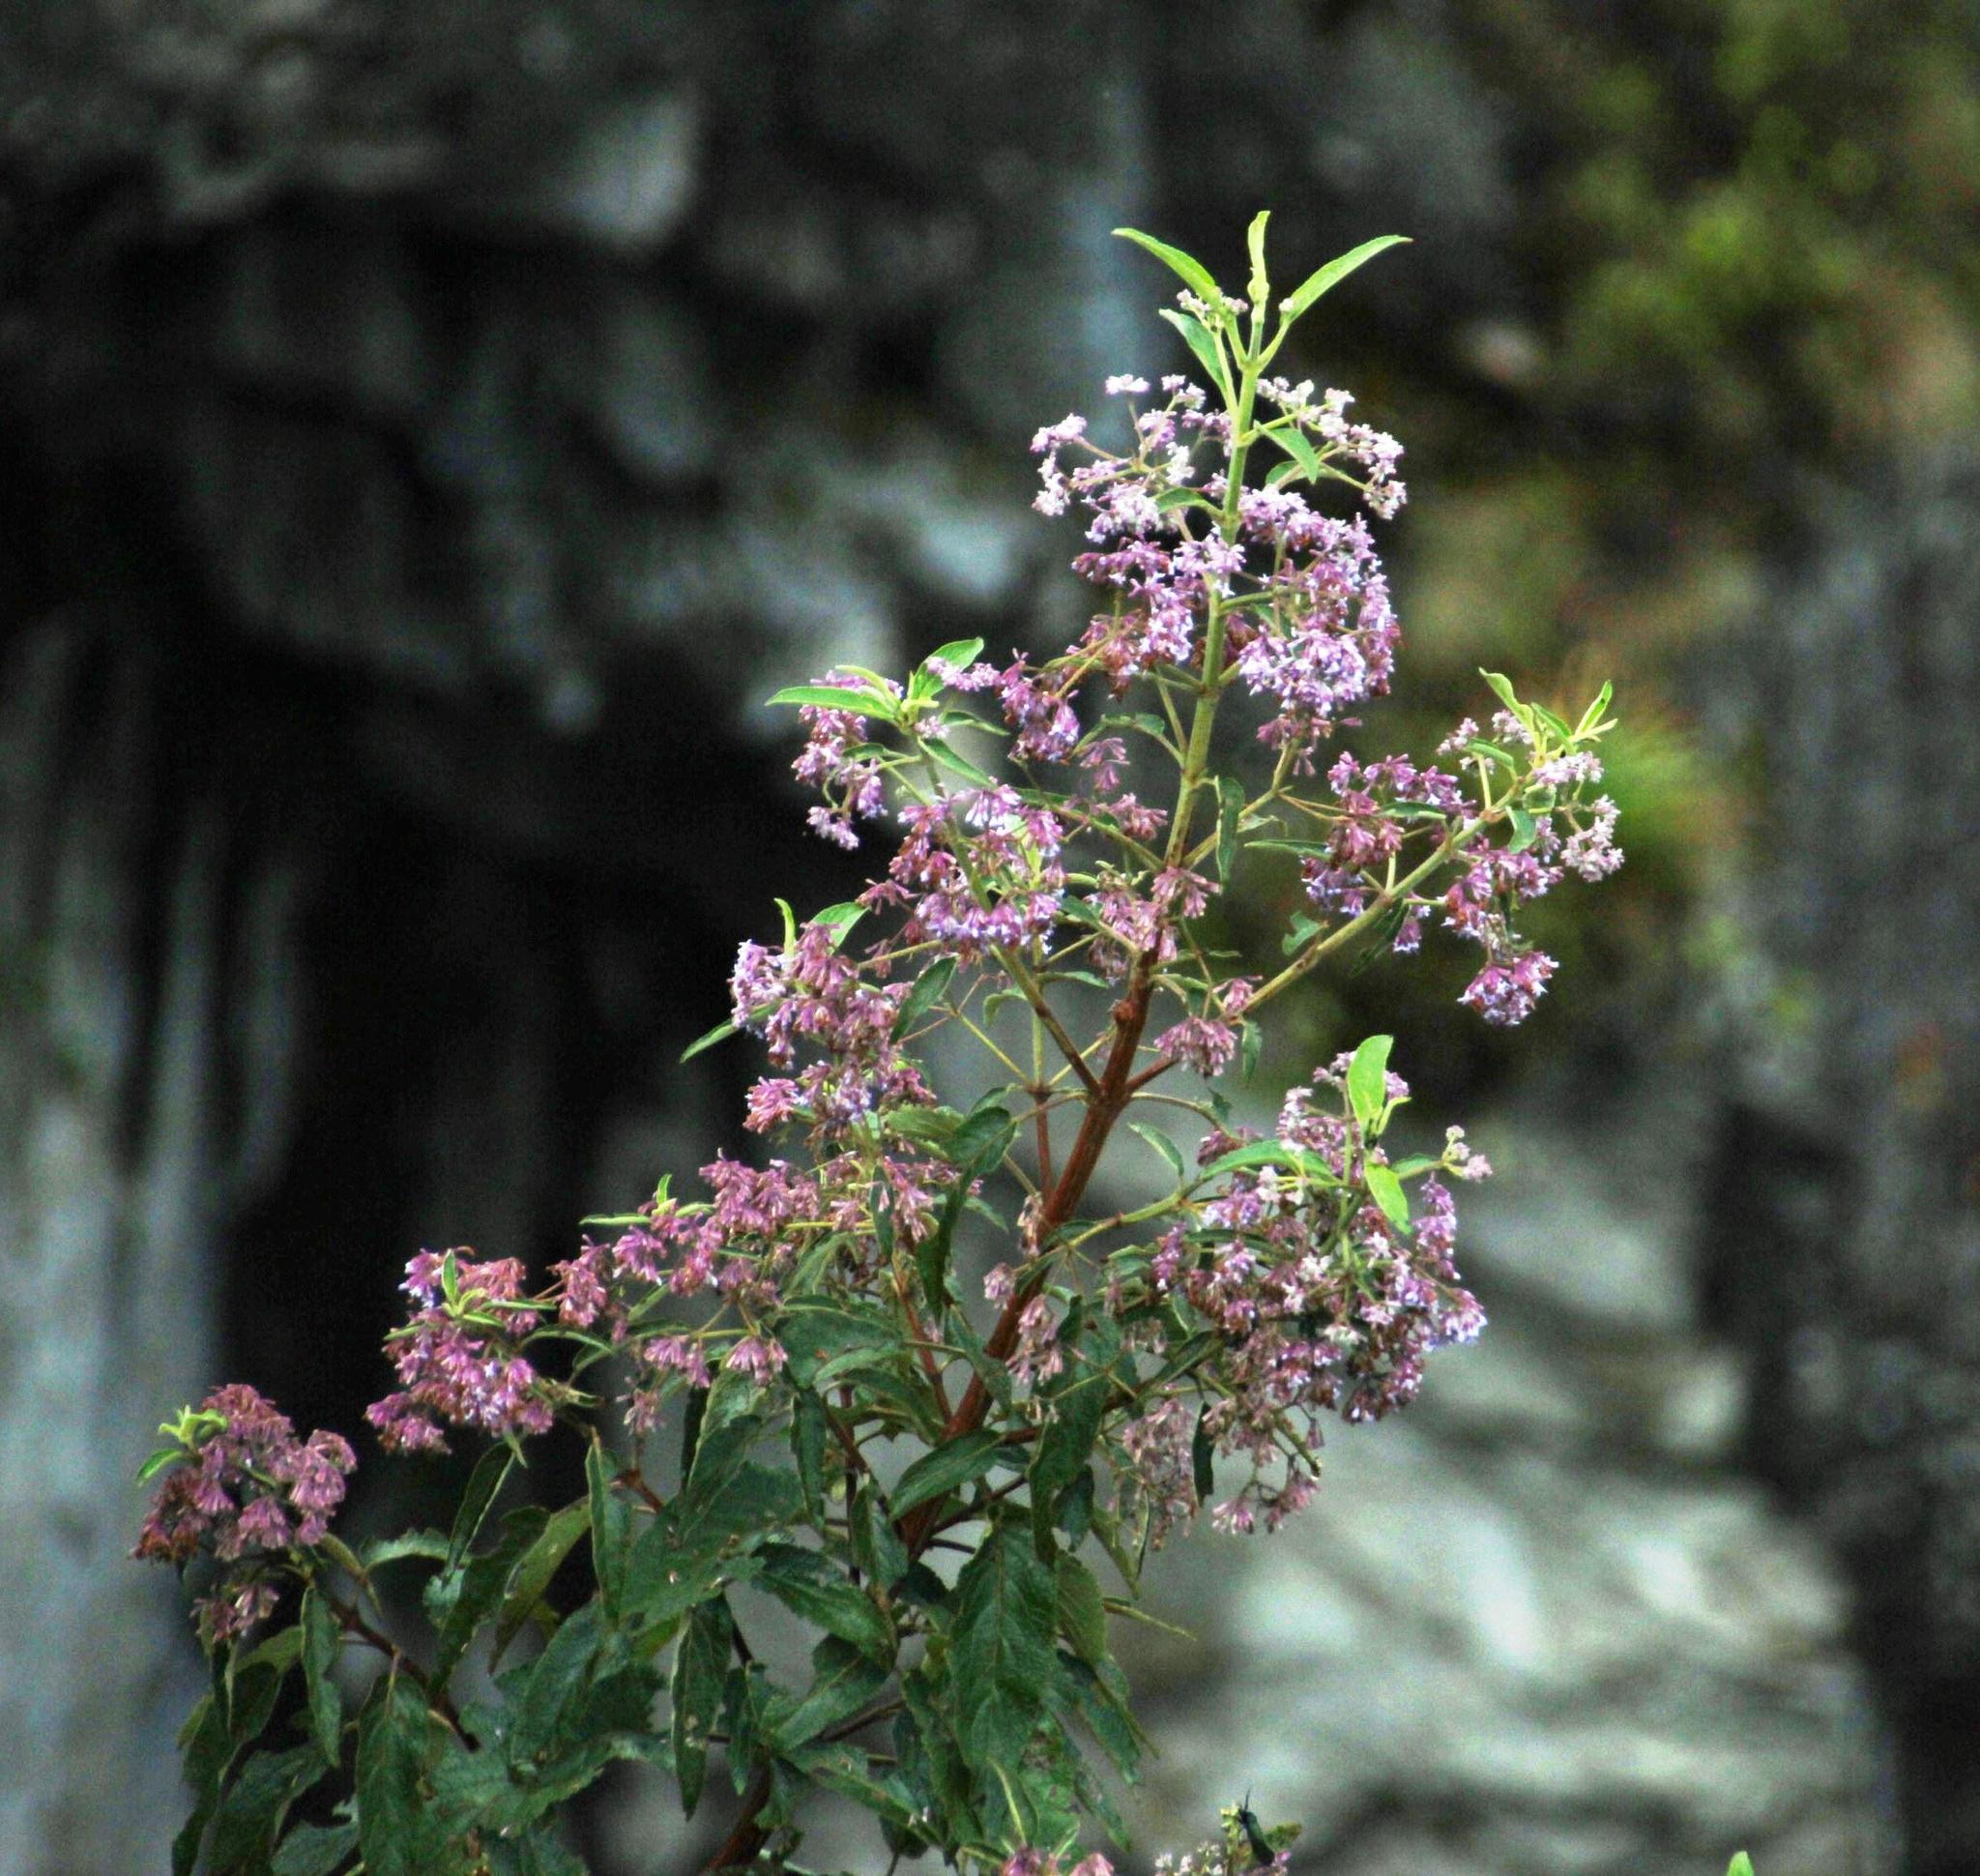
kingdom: Plantae
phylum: Tracheophyta
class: Magnoliopsida
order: Lamiales
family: Lamiaceae
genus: Condea
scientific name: Condea tafallae
